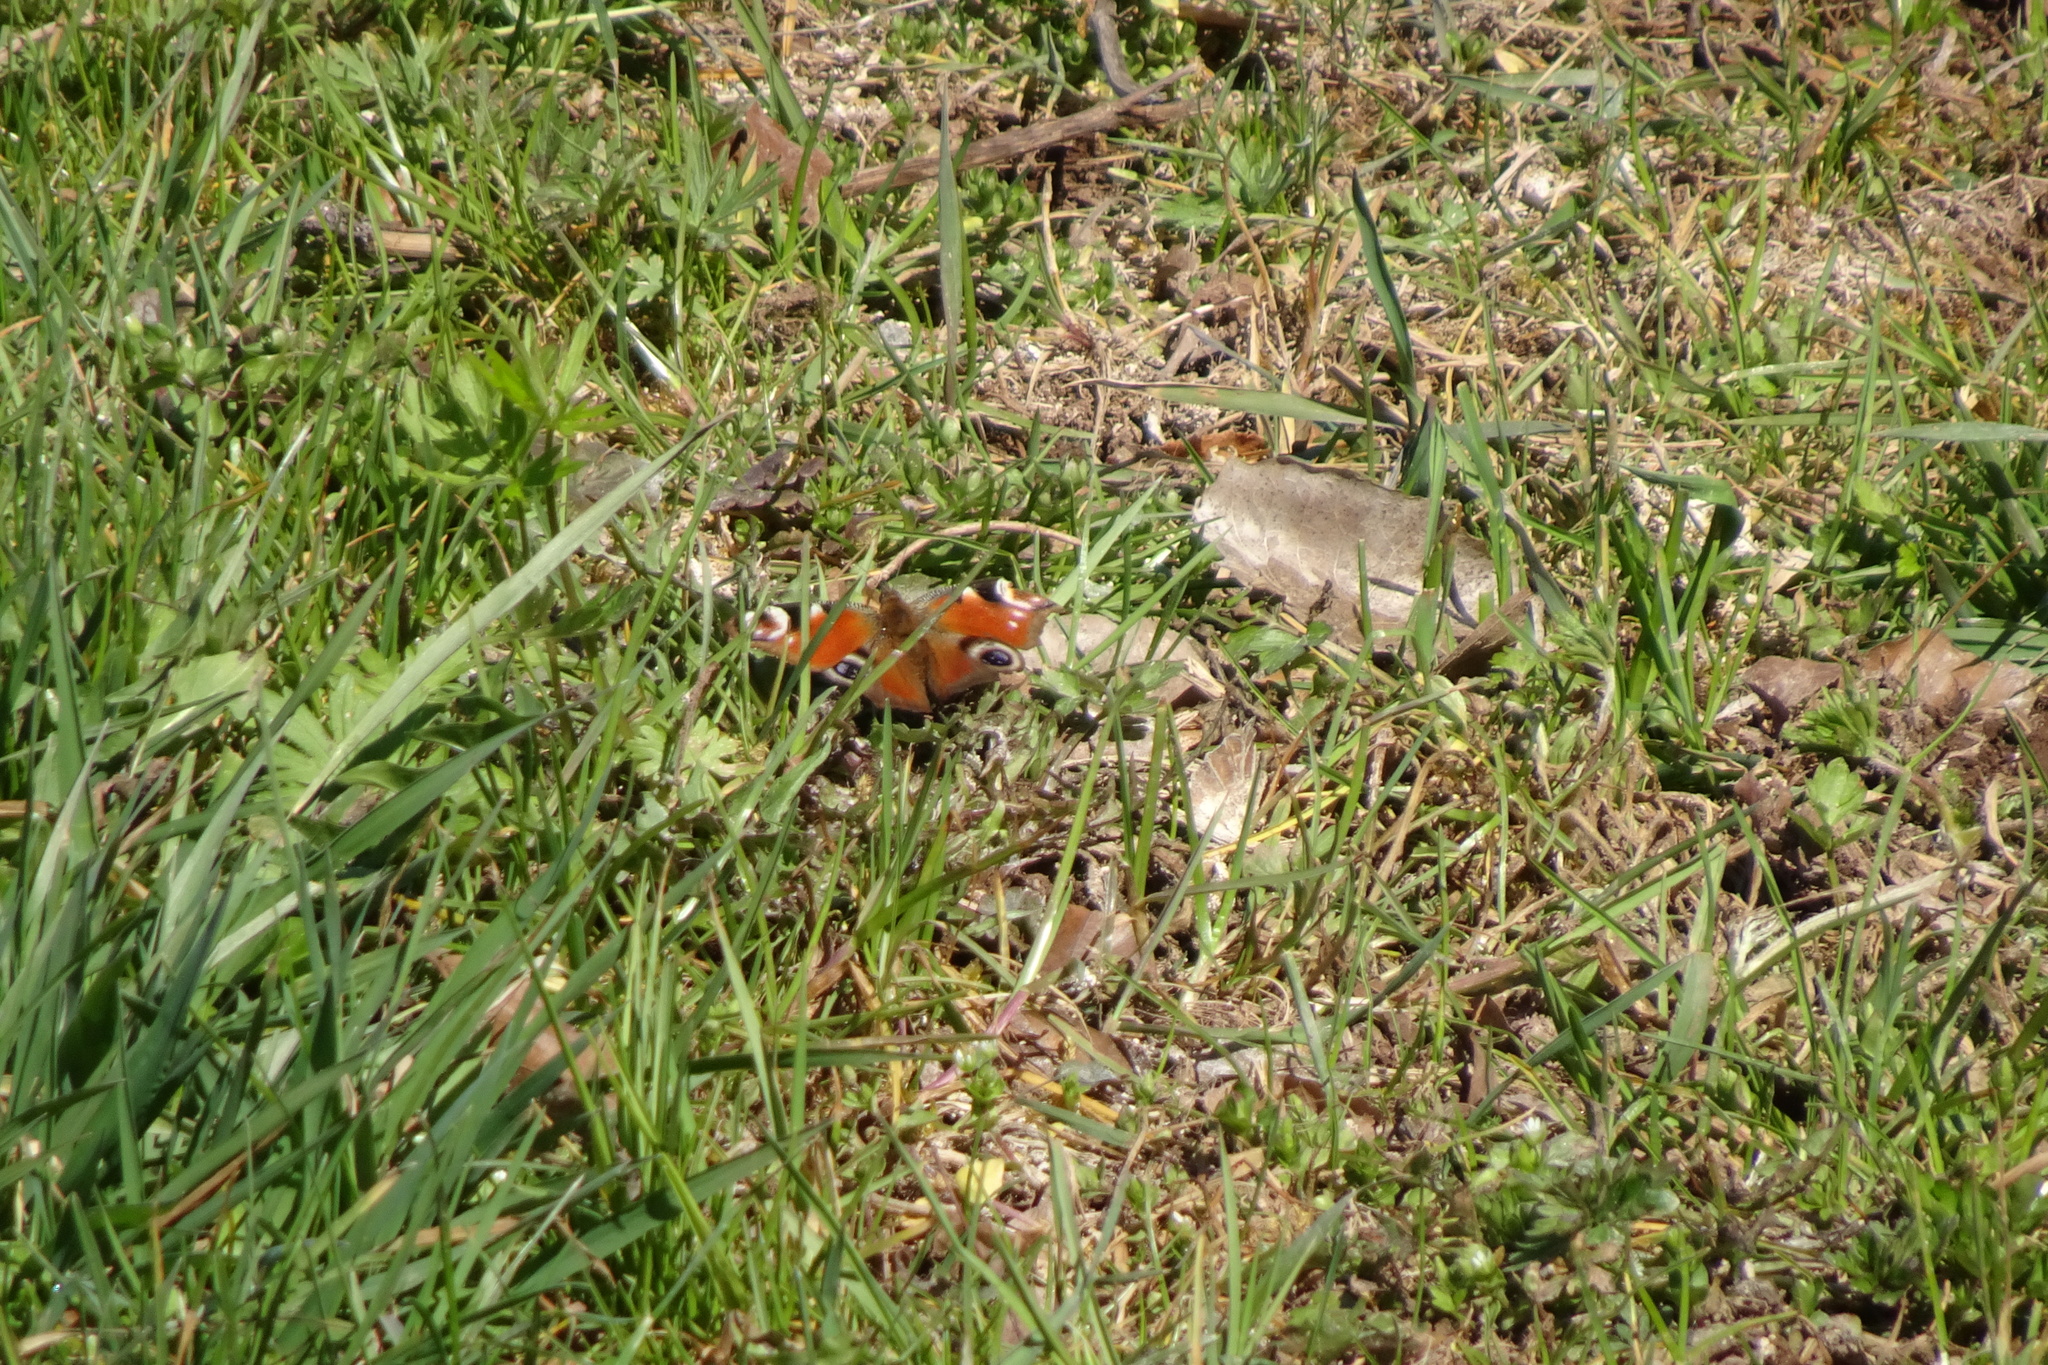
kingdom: Animalia
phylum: Arthropoda
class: Insecta
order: Lepidoptera
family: Nymphalidae
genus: Aglais
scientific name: Aglais io
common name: Peacock
